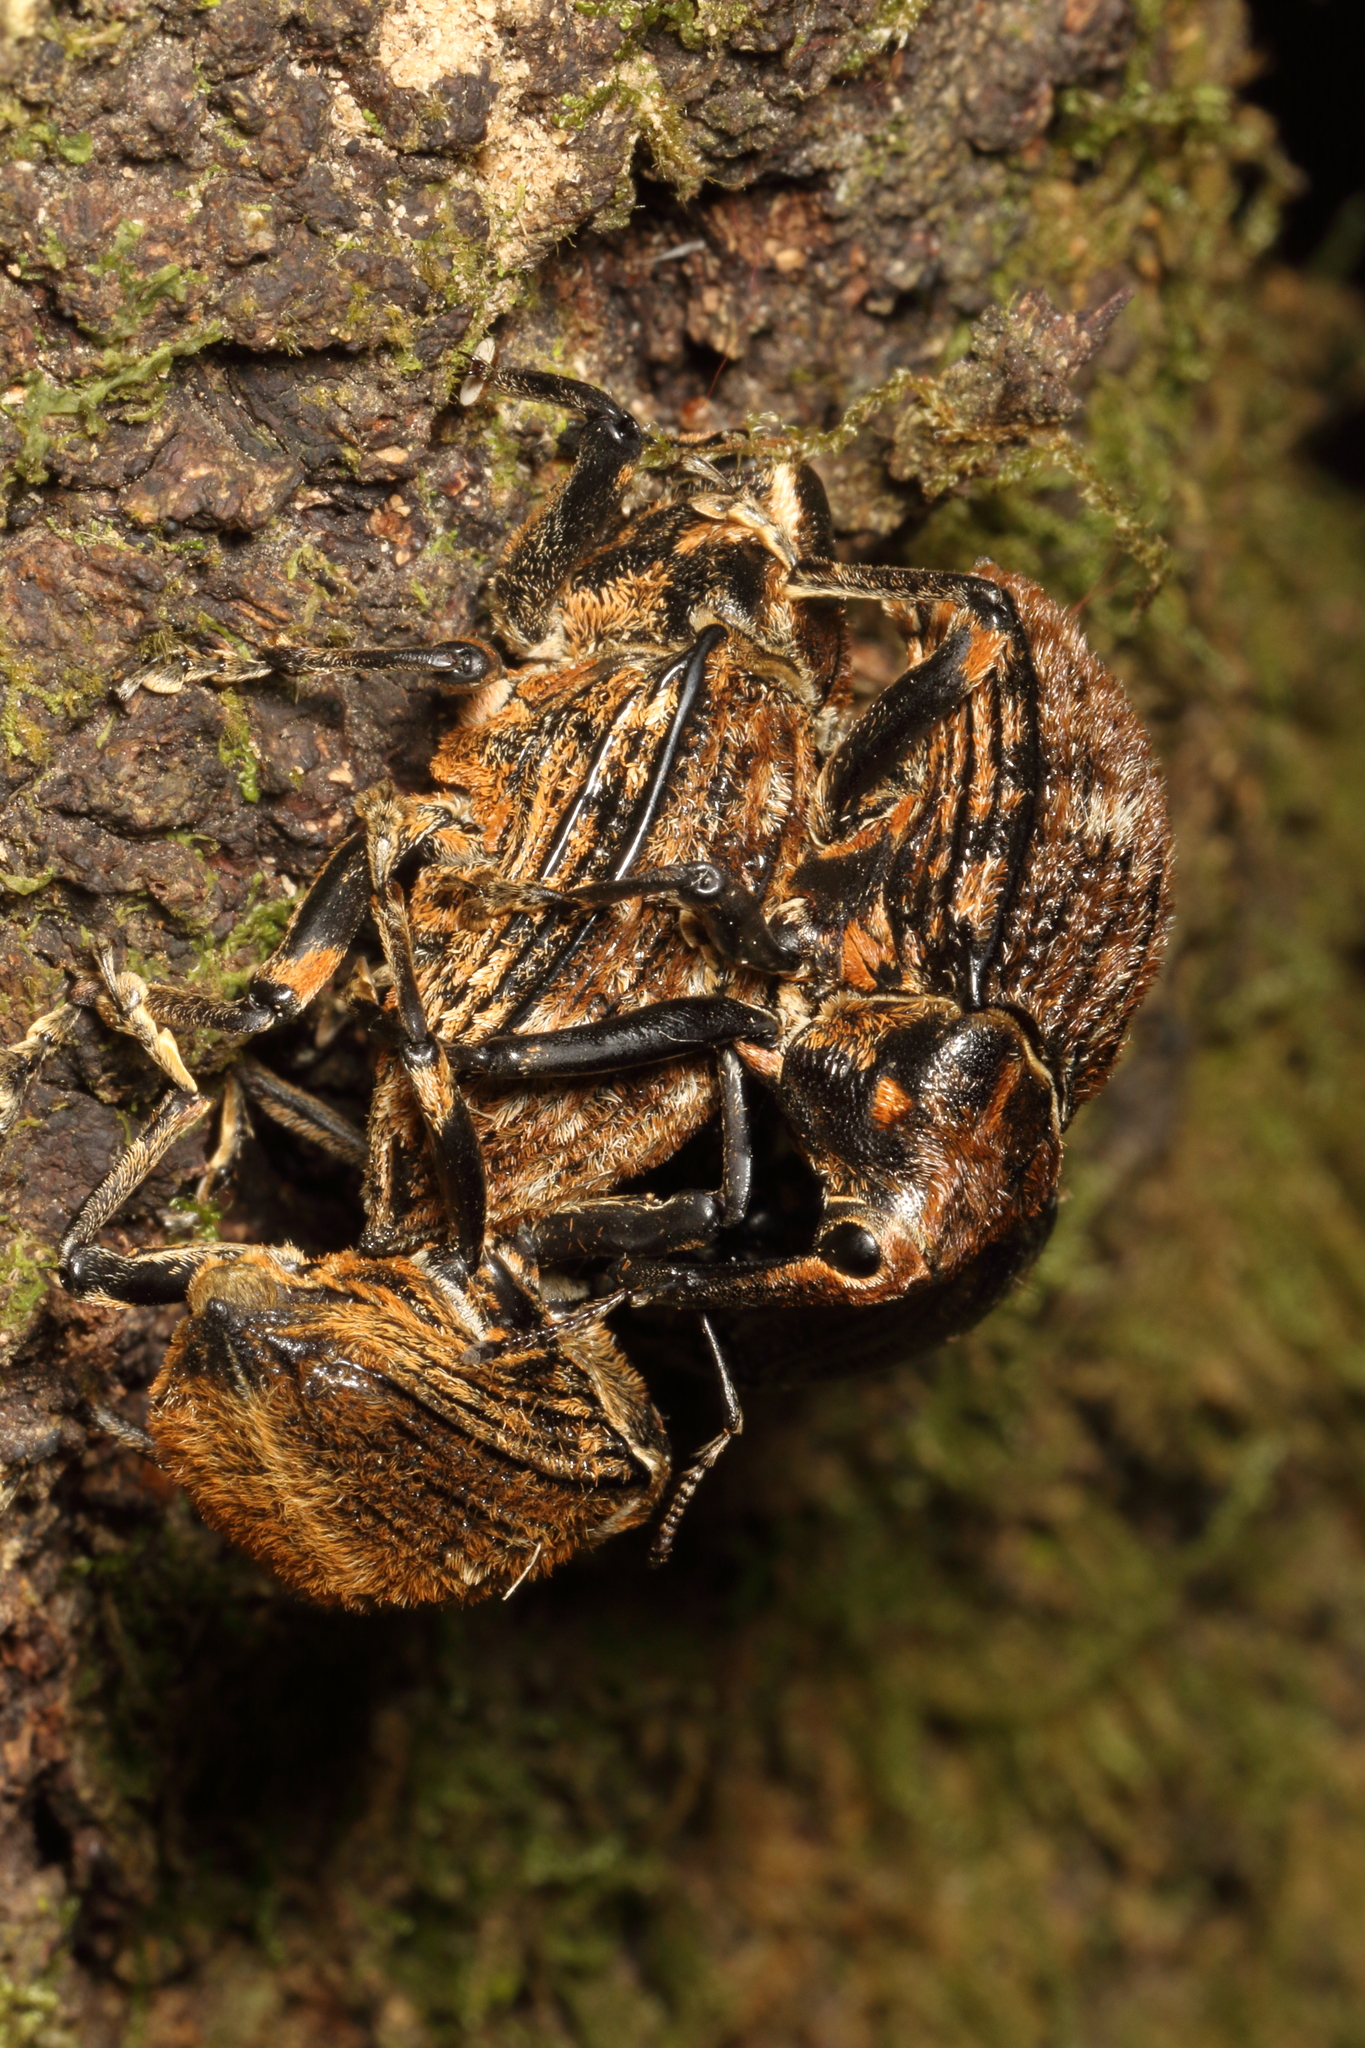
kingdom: Animalia
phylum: Arthropoda
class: Insecta
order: Coleoptera
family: Curculionidae
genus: Rhynchodes
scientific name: Rhynchodes ursus
